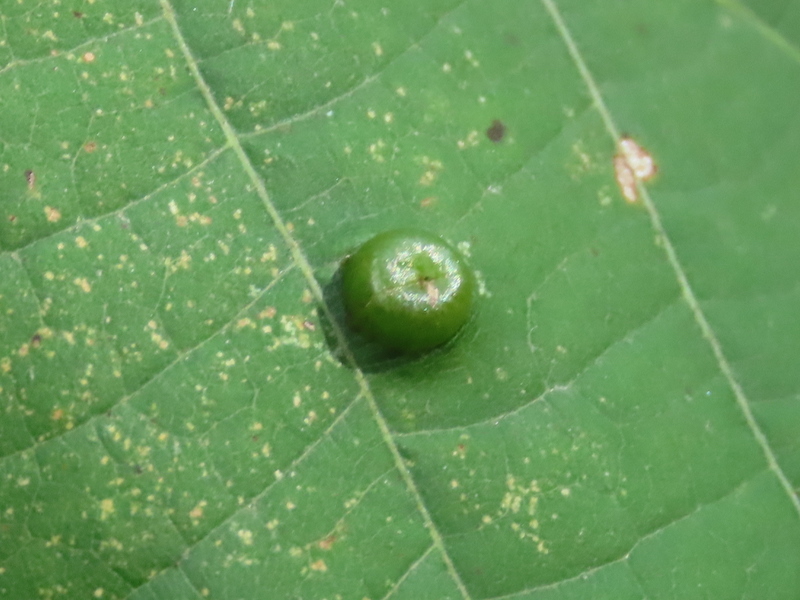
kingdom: Animalia
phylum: Arthropoda
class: Insecta
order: Diptera
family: Cecidomyiidae
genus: Contarinia
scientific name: Contarinia verrucicola
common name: Linden wart gall midge
